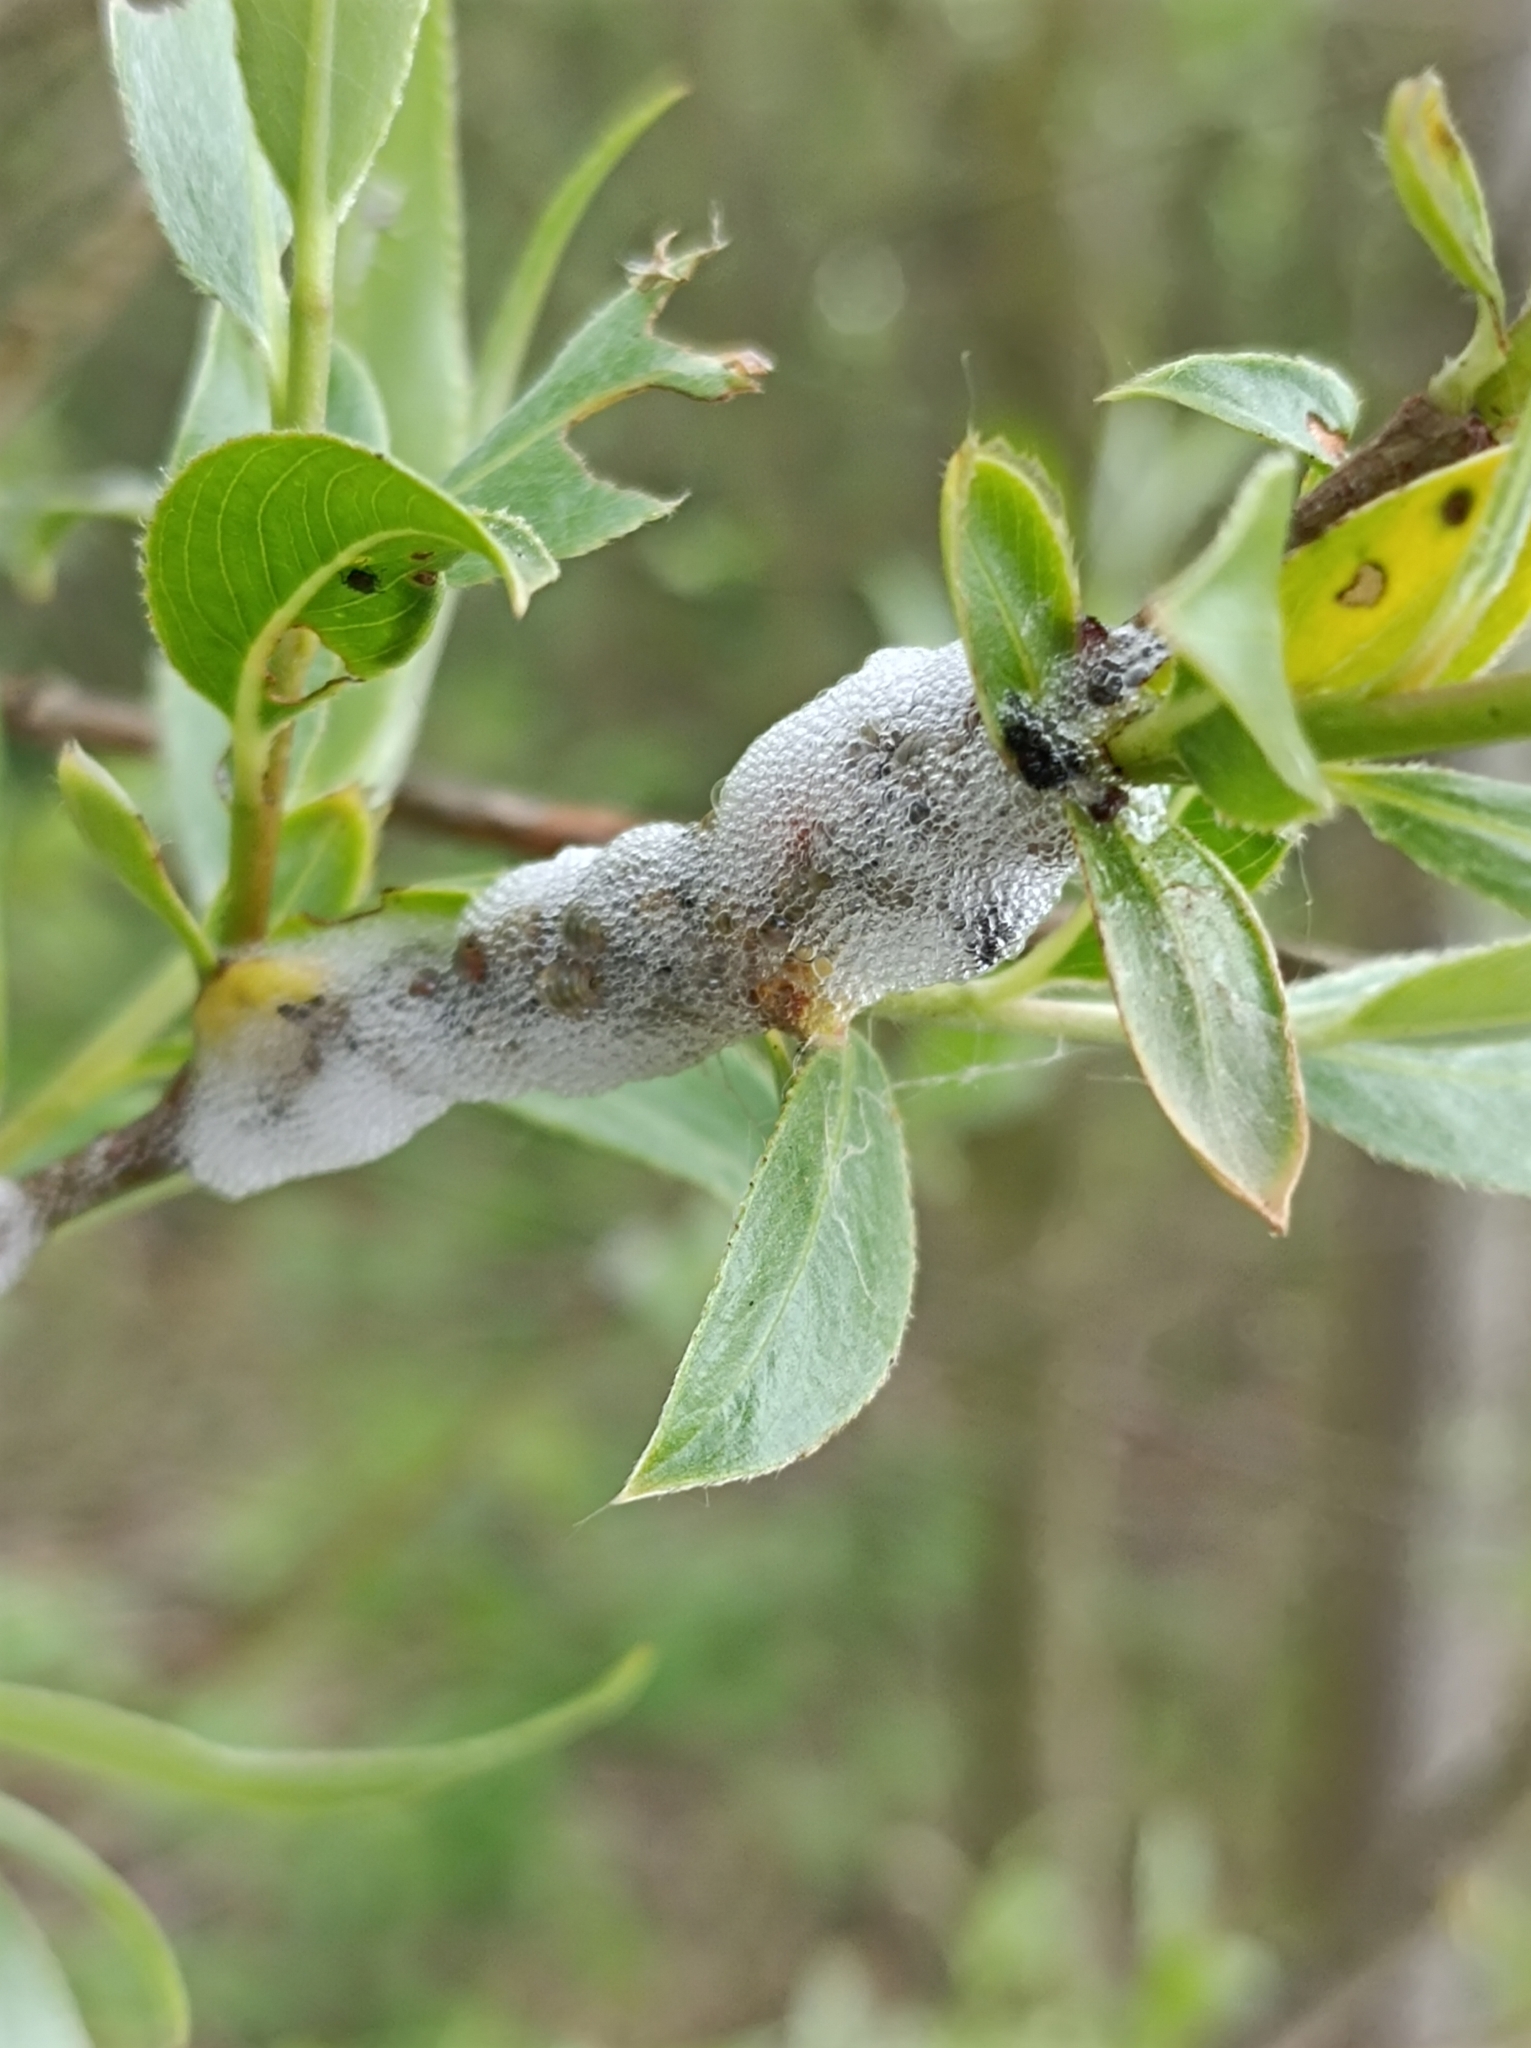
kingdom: Animalia
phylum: Arthropoda
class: Insecta
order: Hemiptera
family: Aphrophoridae
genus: Aphrophora
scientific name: Aphrophora salicina
